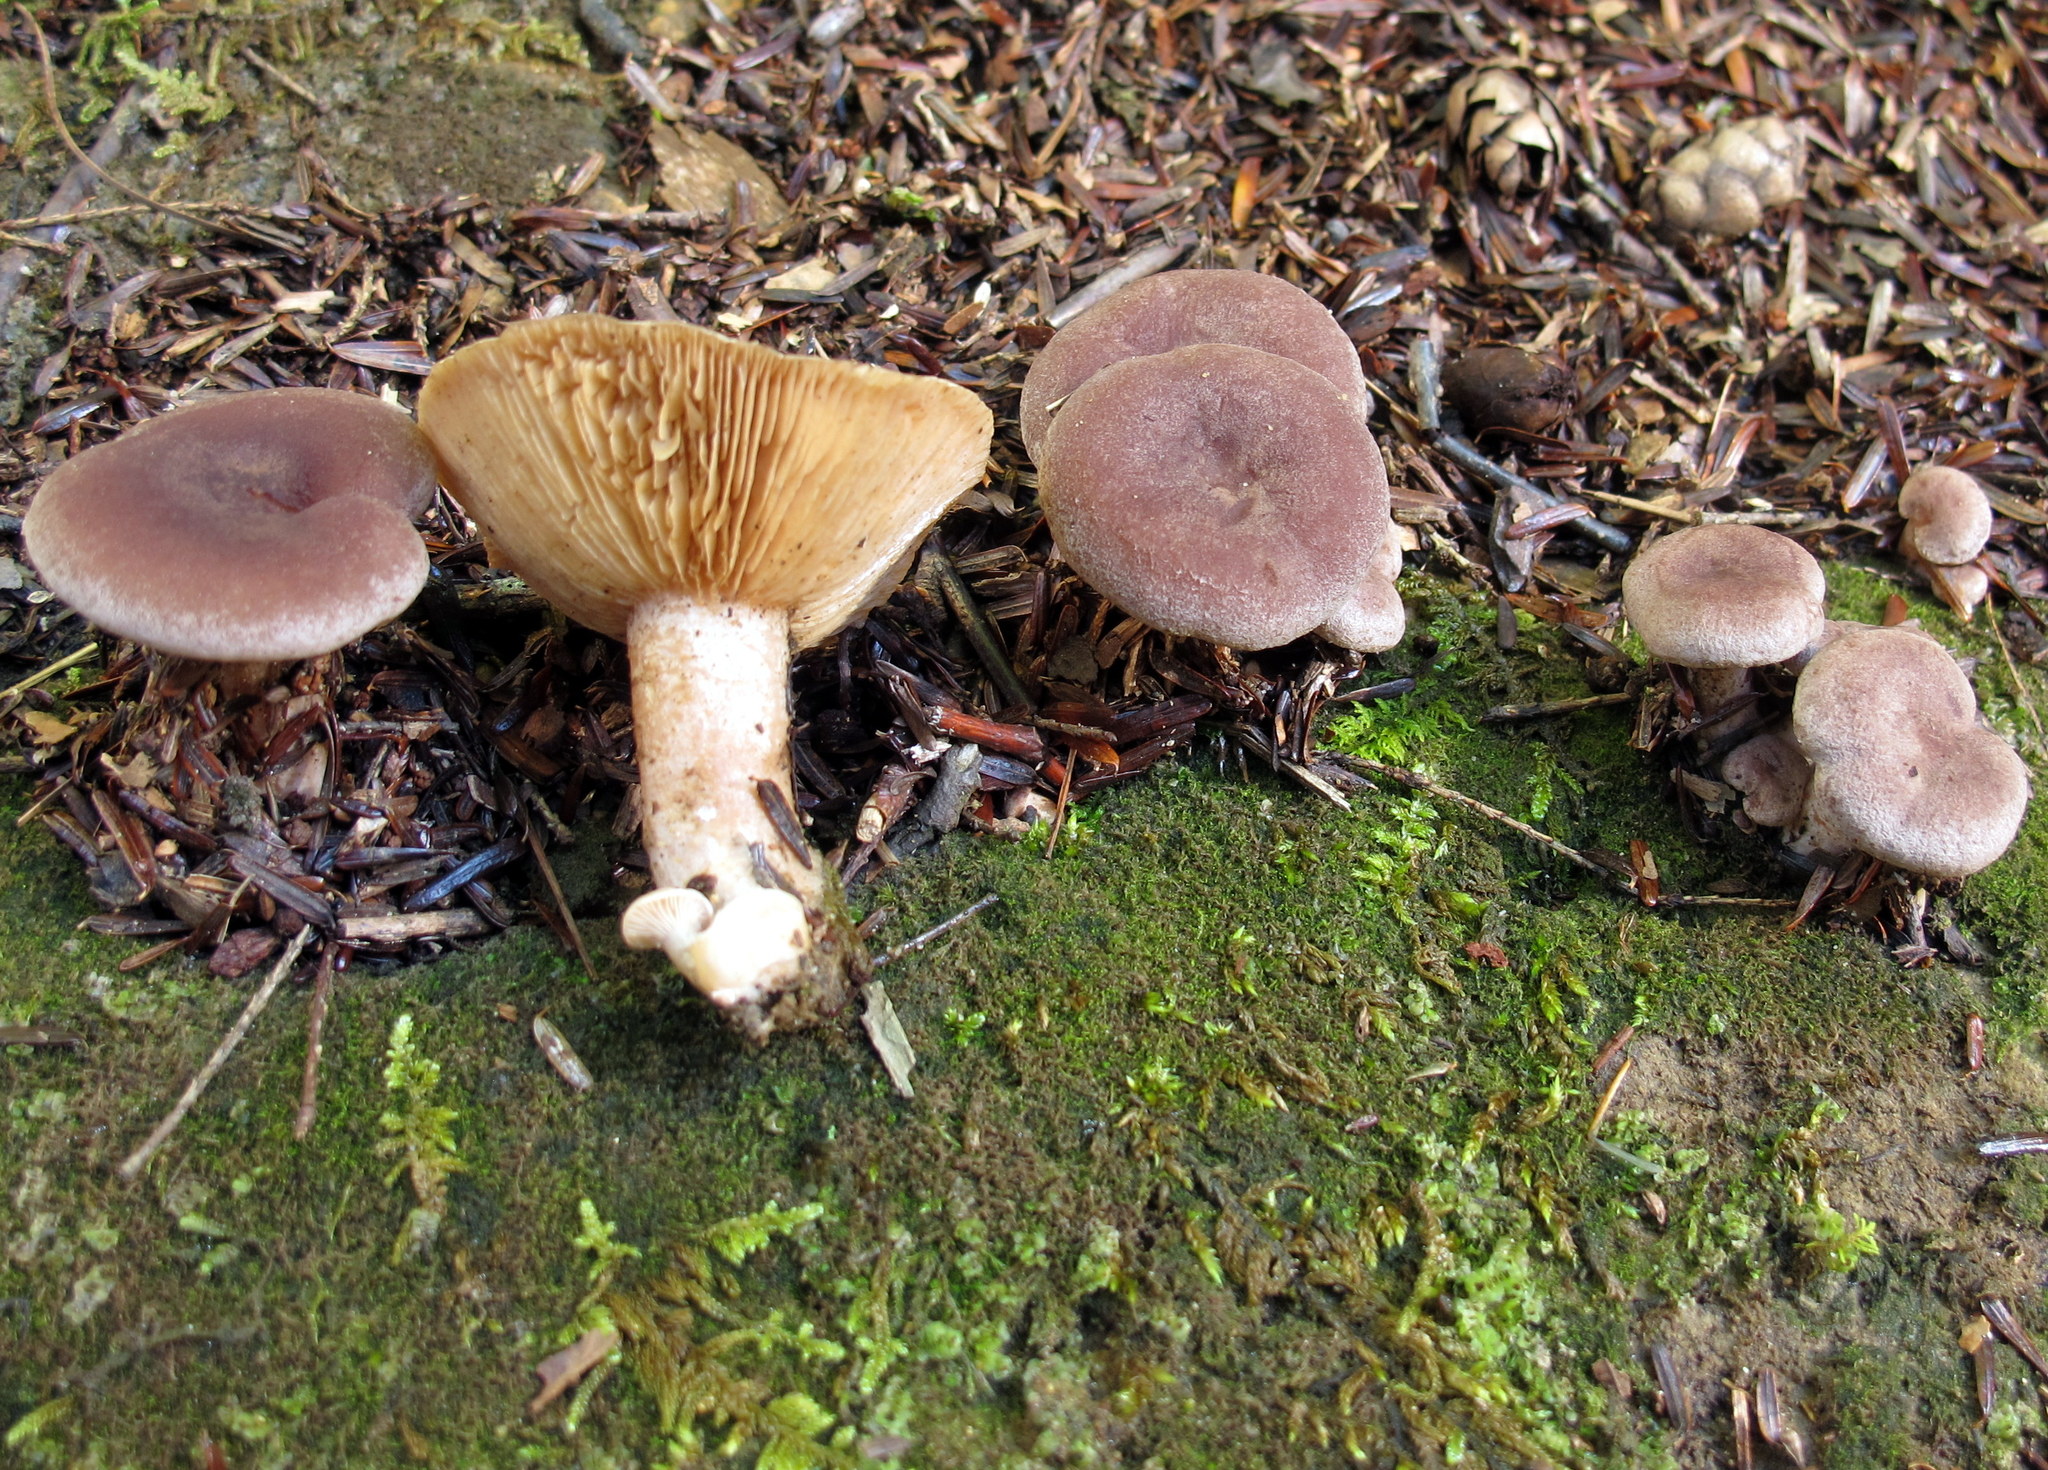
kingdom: Fungi
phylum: Basidiomycota
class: Agaricomycetes
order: Russulales
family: Russulaceae
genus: Lactarius
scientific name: Lactarius hibbardiae
